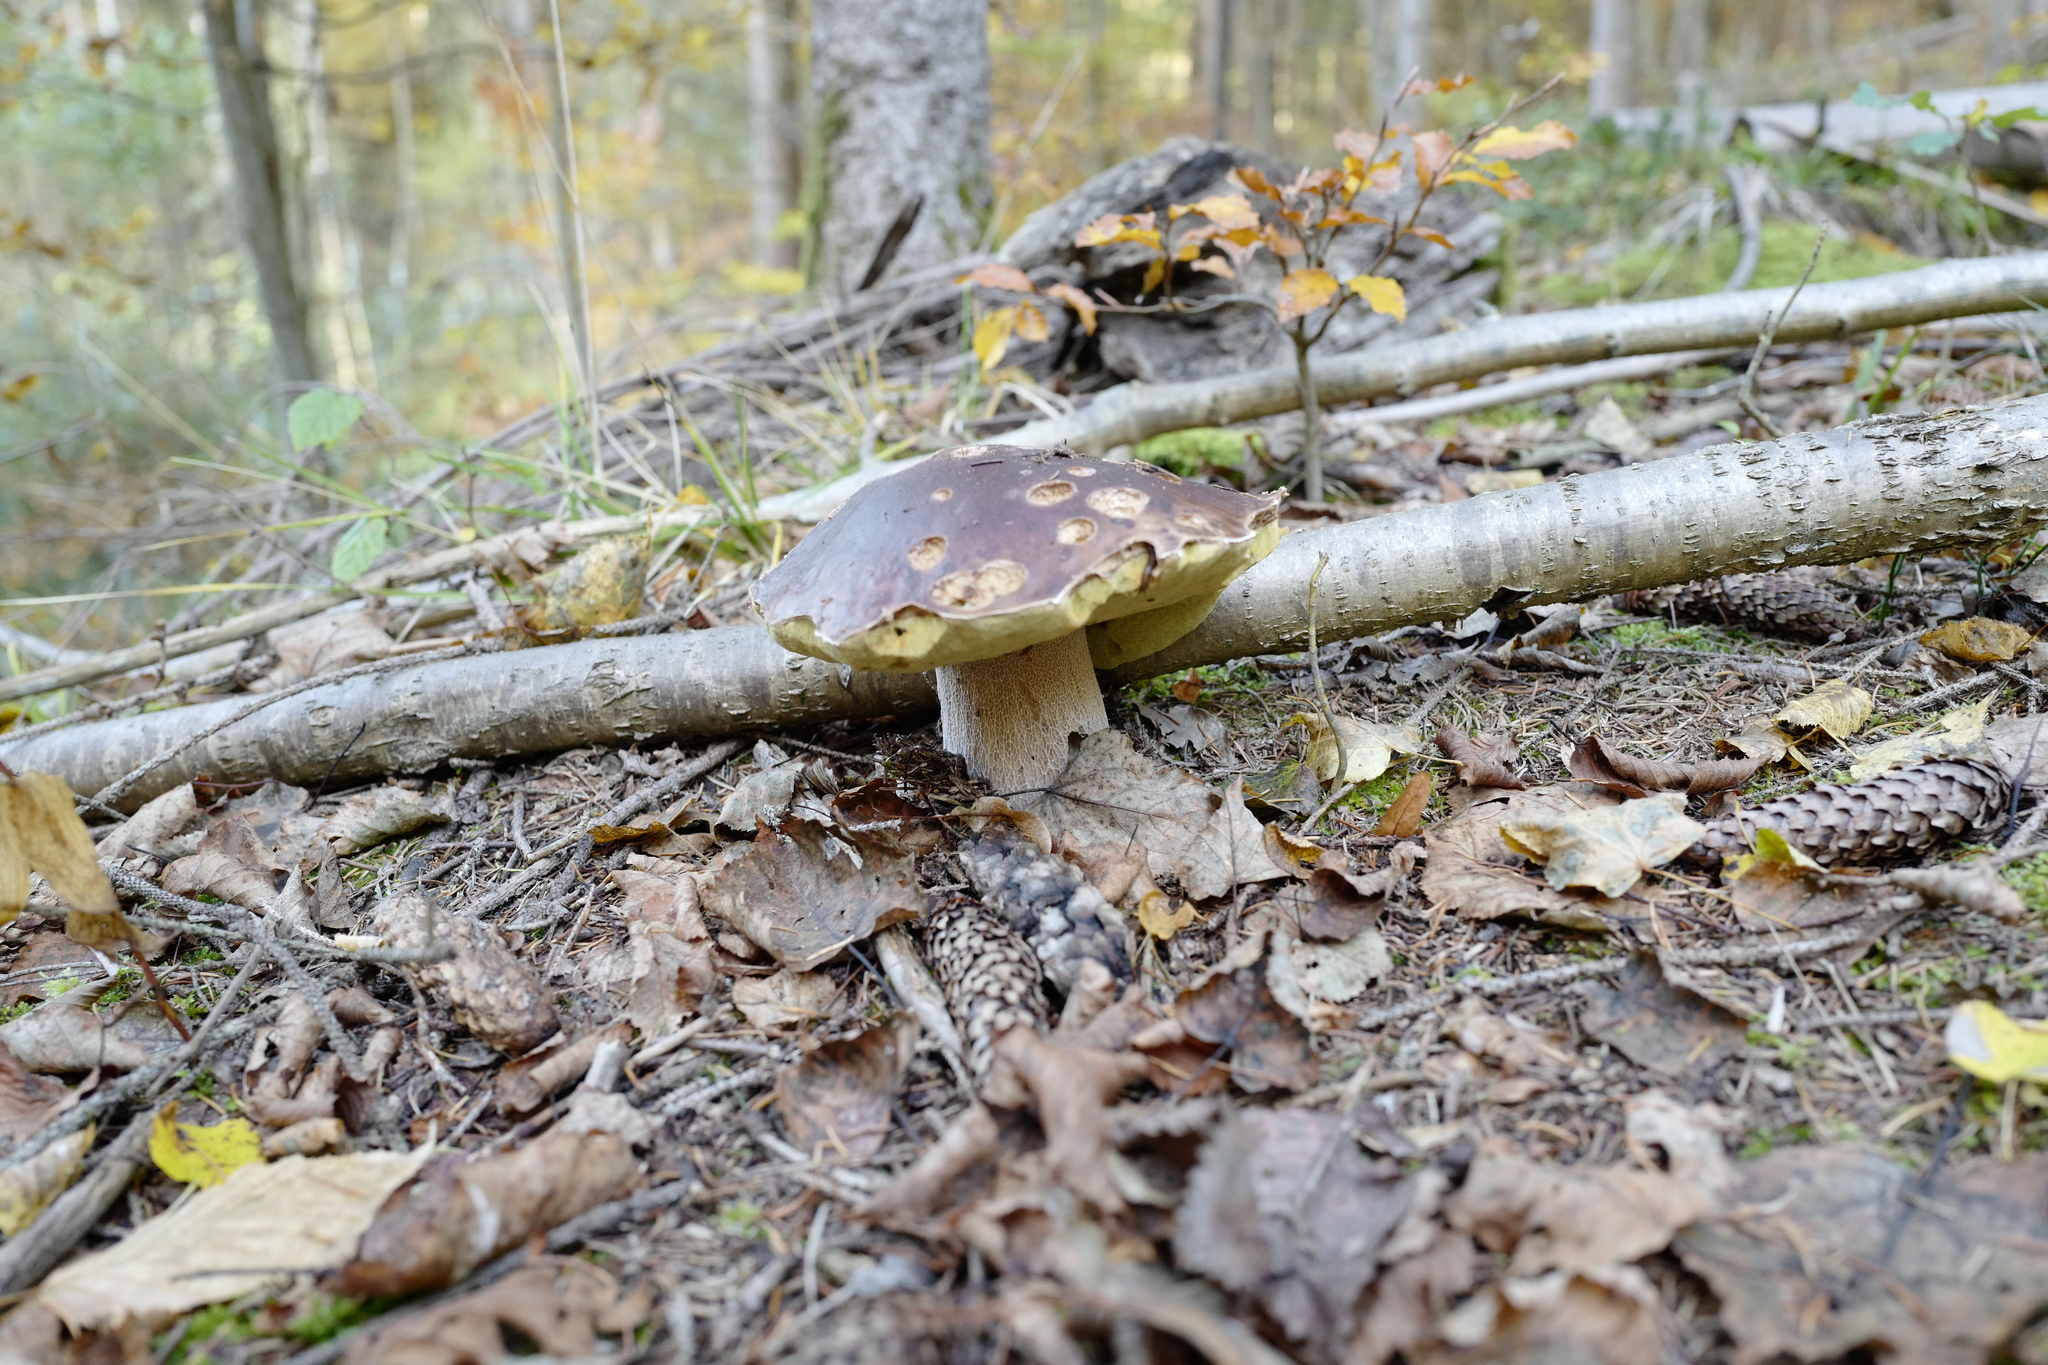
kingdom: Fungi
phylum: Basidiomycota
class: Agaricomycetes
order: Boletales
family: Boletaceae
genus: Boletus
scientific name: Boletus edulis
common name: Cep
